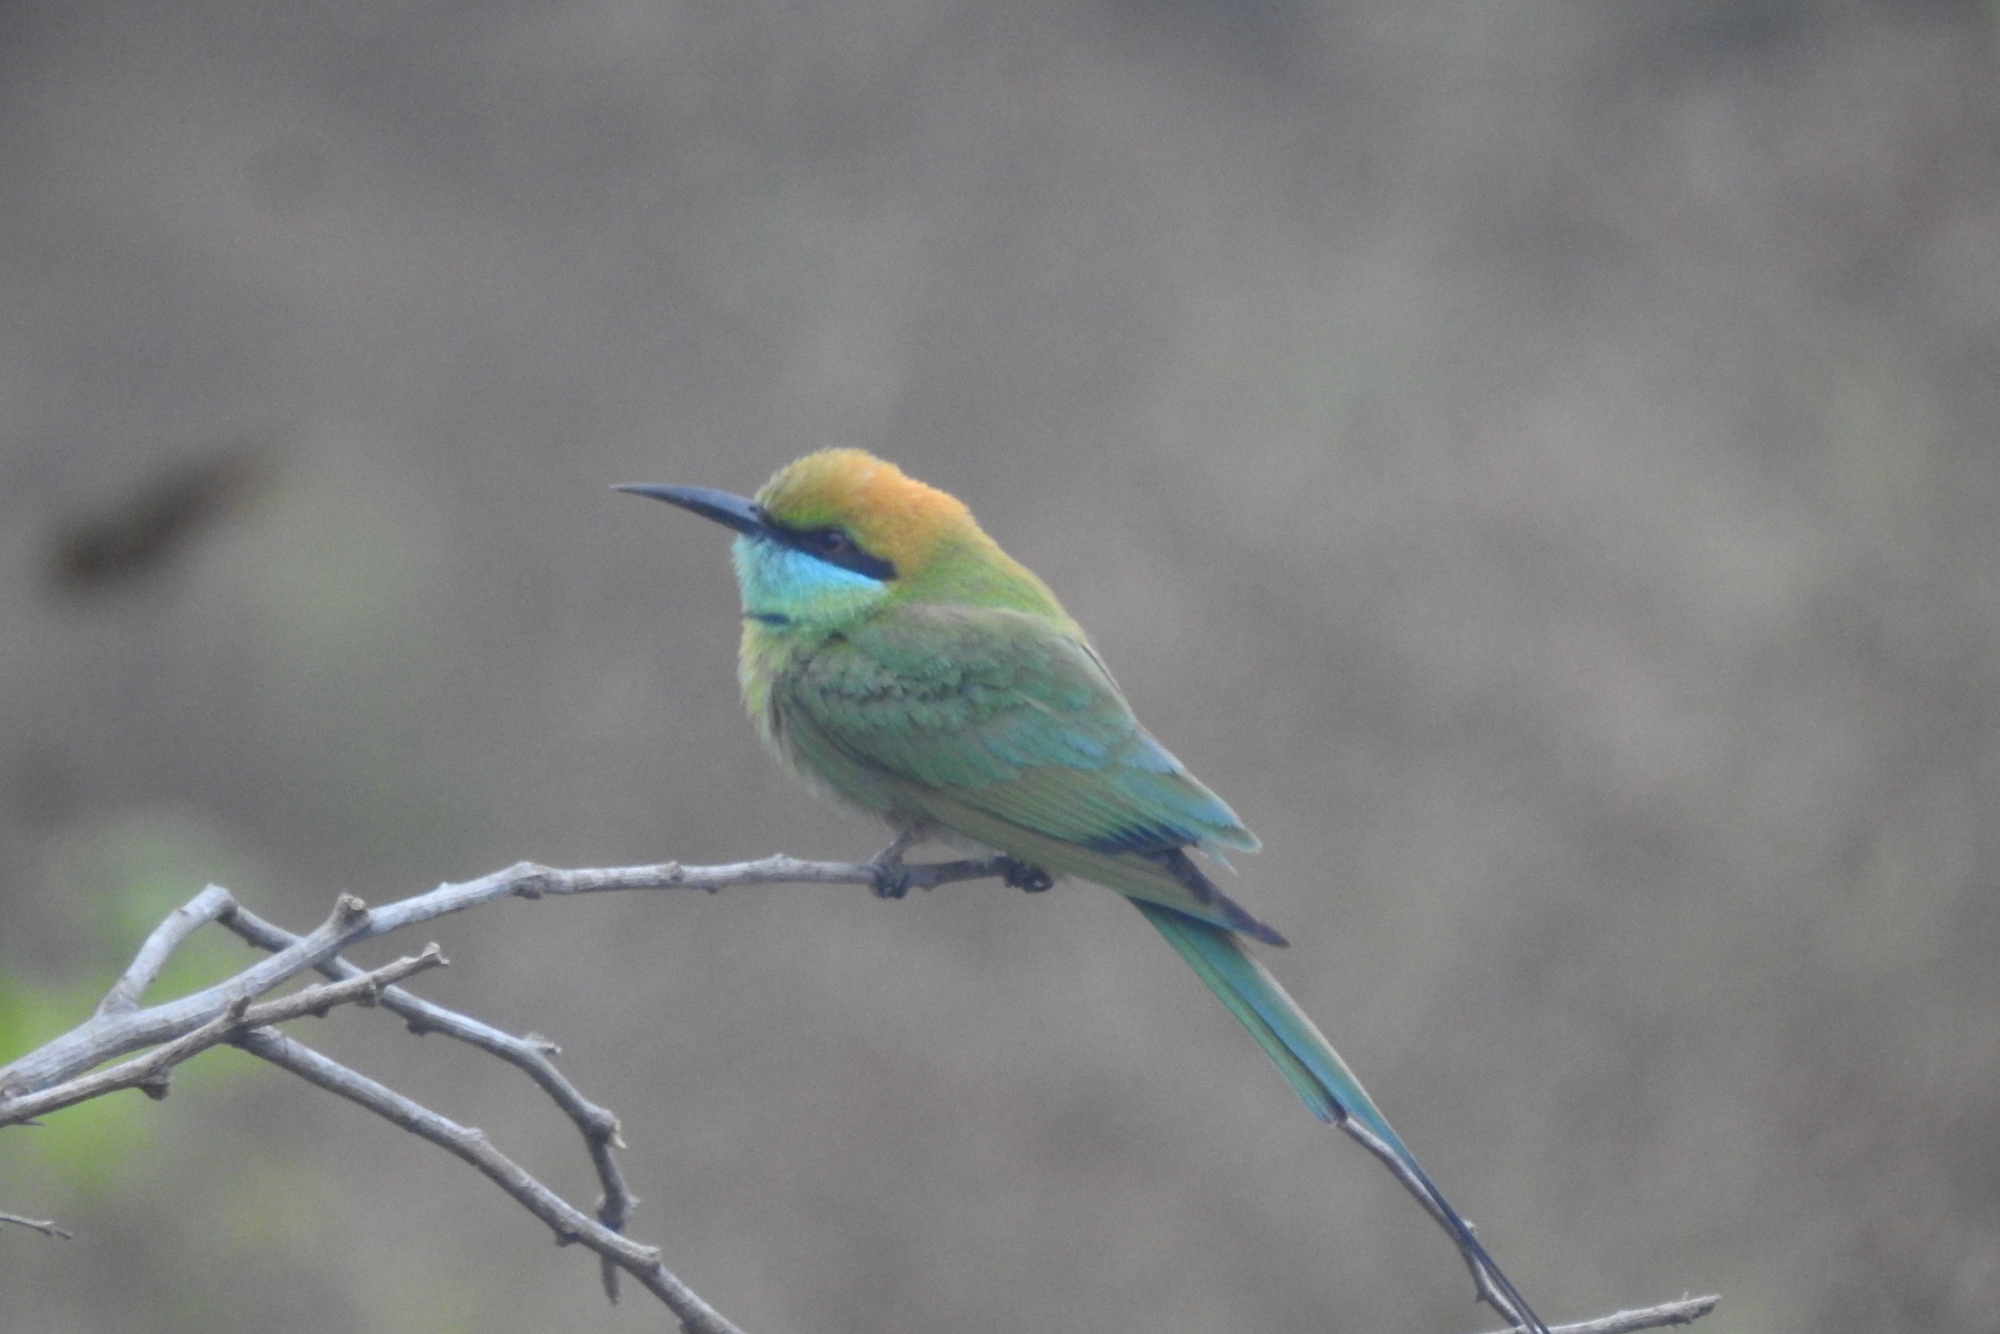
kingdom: Animalia
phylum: Chordata
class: Aves
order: Coraciiformes
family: Meropidae
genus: Merops
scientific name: Merops orientalis
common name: Green bee-eater
